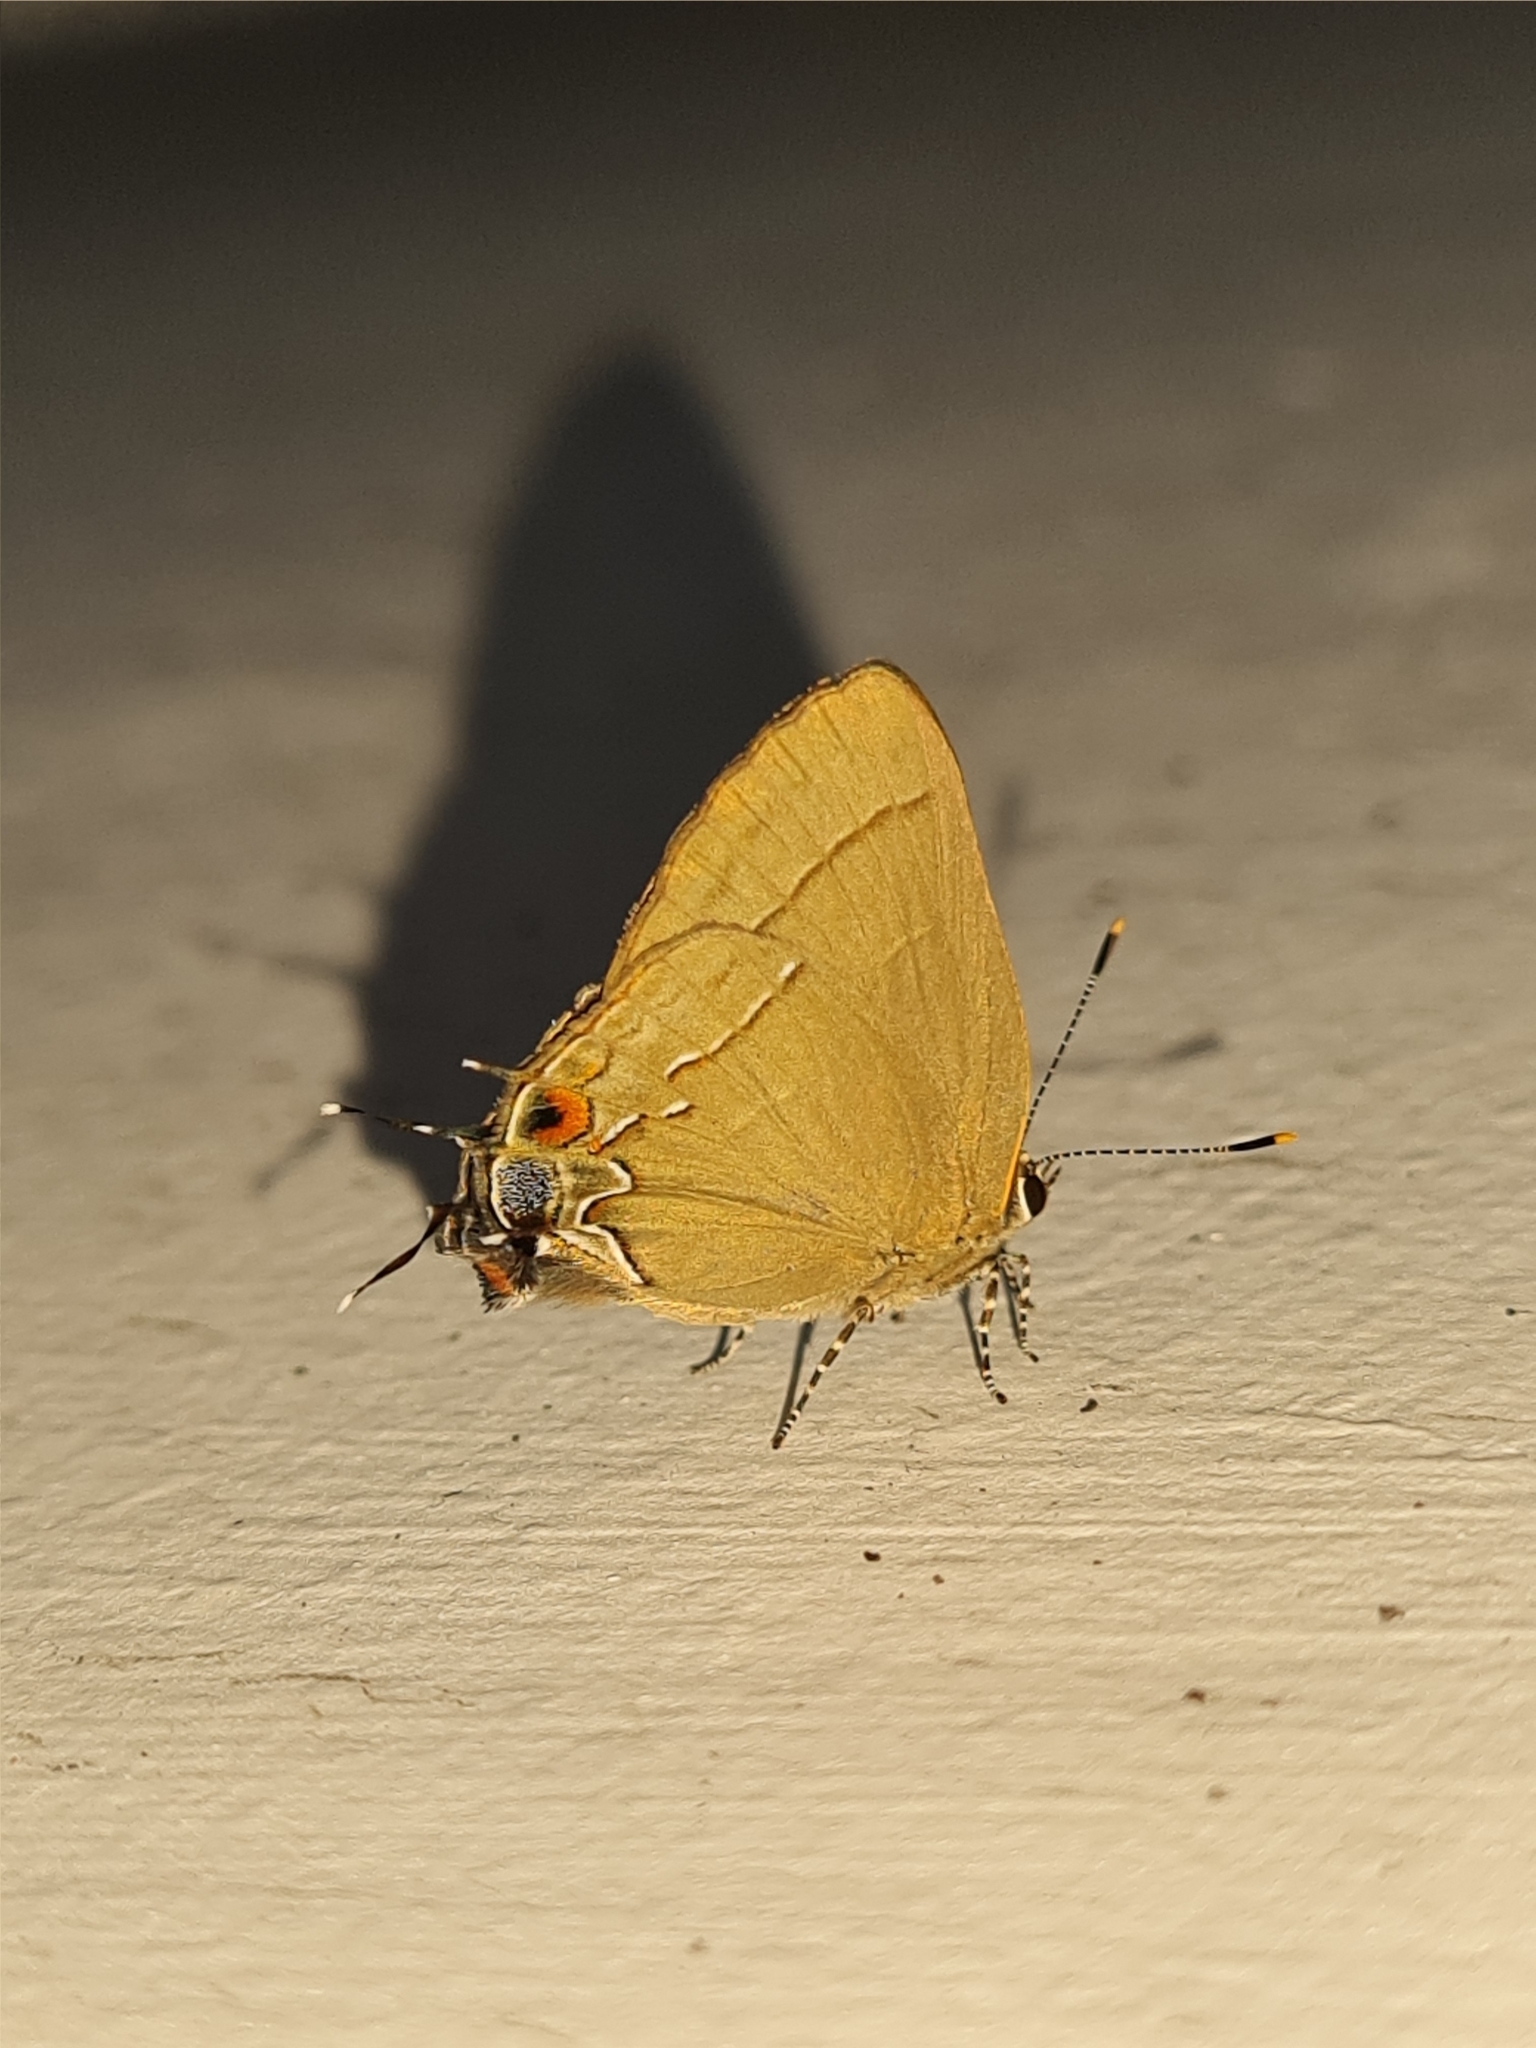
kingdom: Animalia
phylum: Arthropoda
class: Insecta
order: Lepidoptera
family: Lycaenidae
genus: Ziegleria
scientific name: Ziegleria hesperitis
